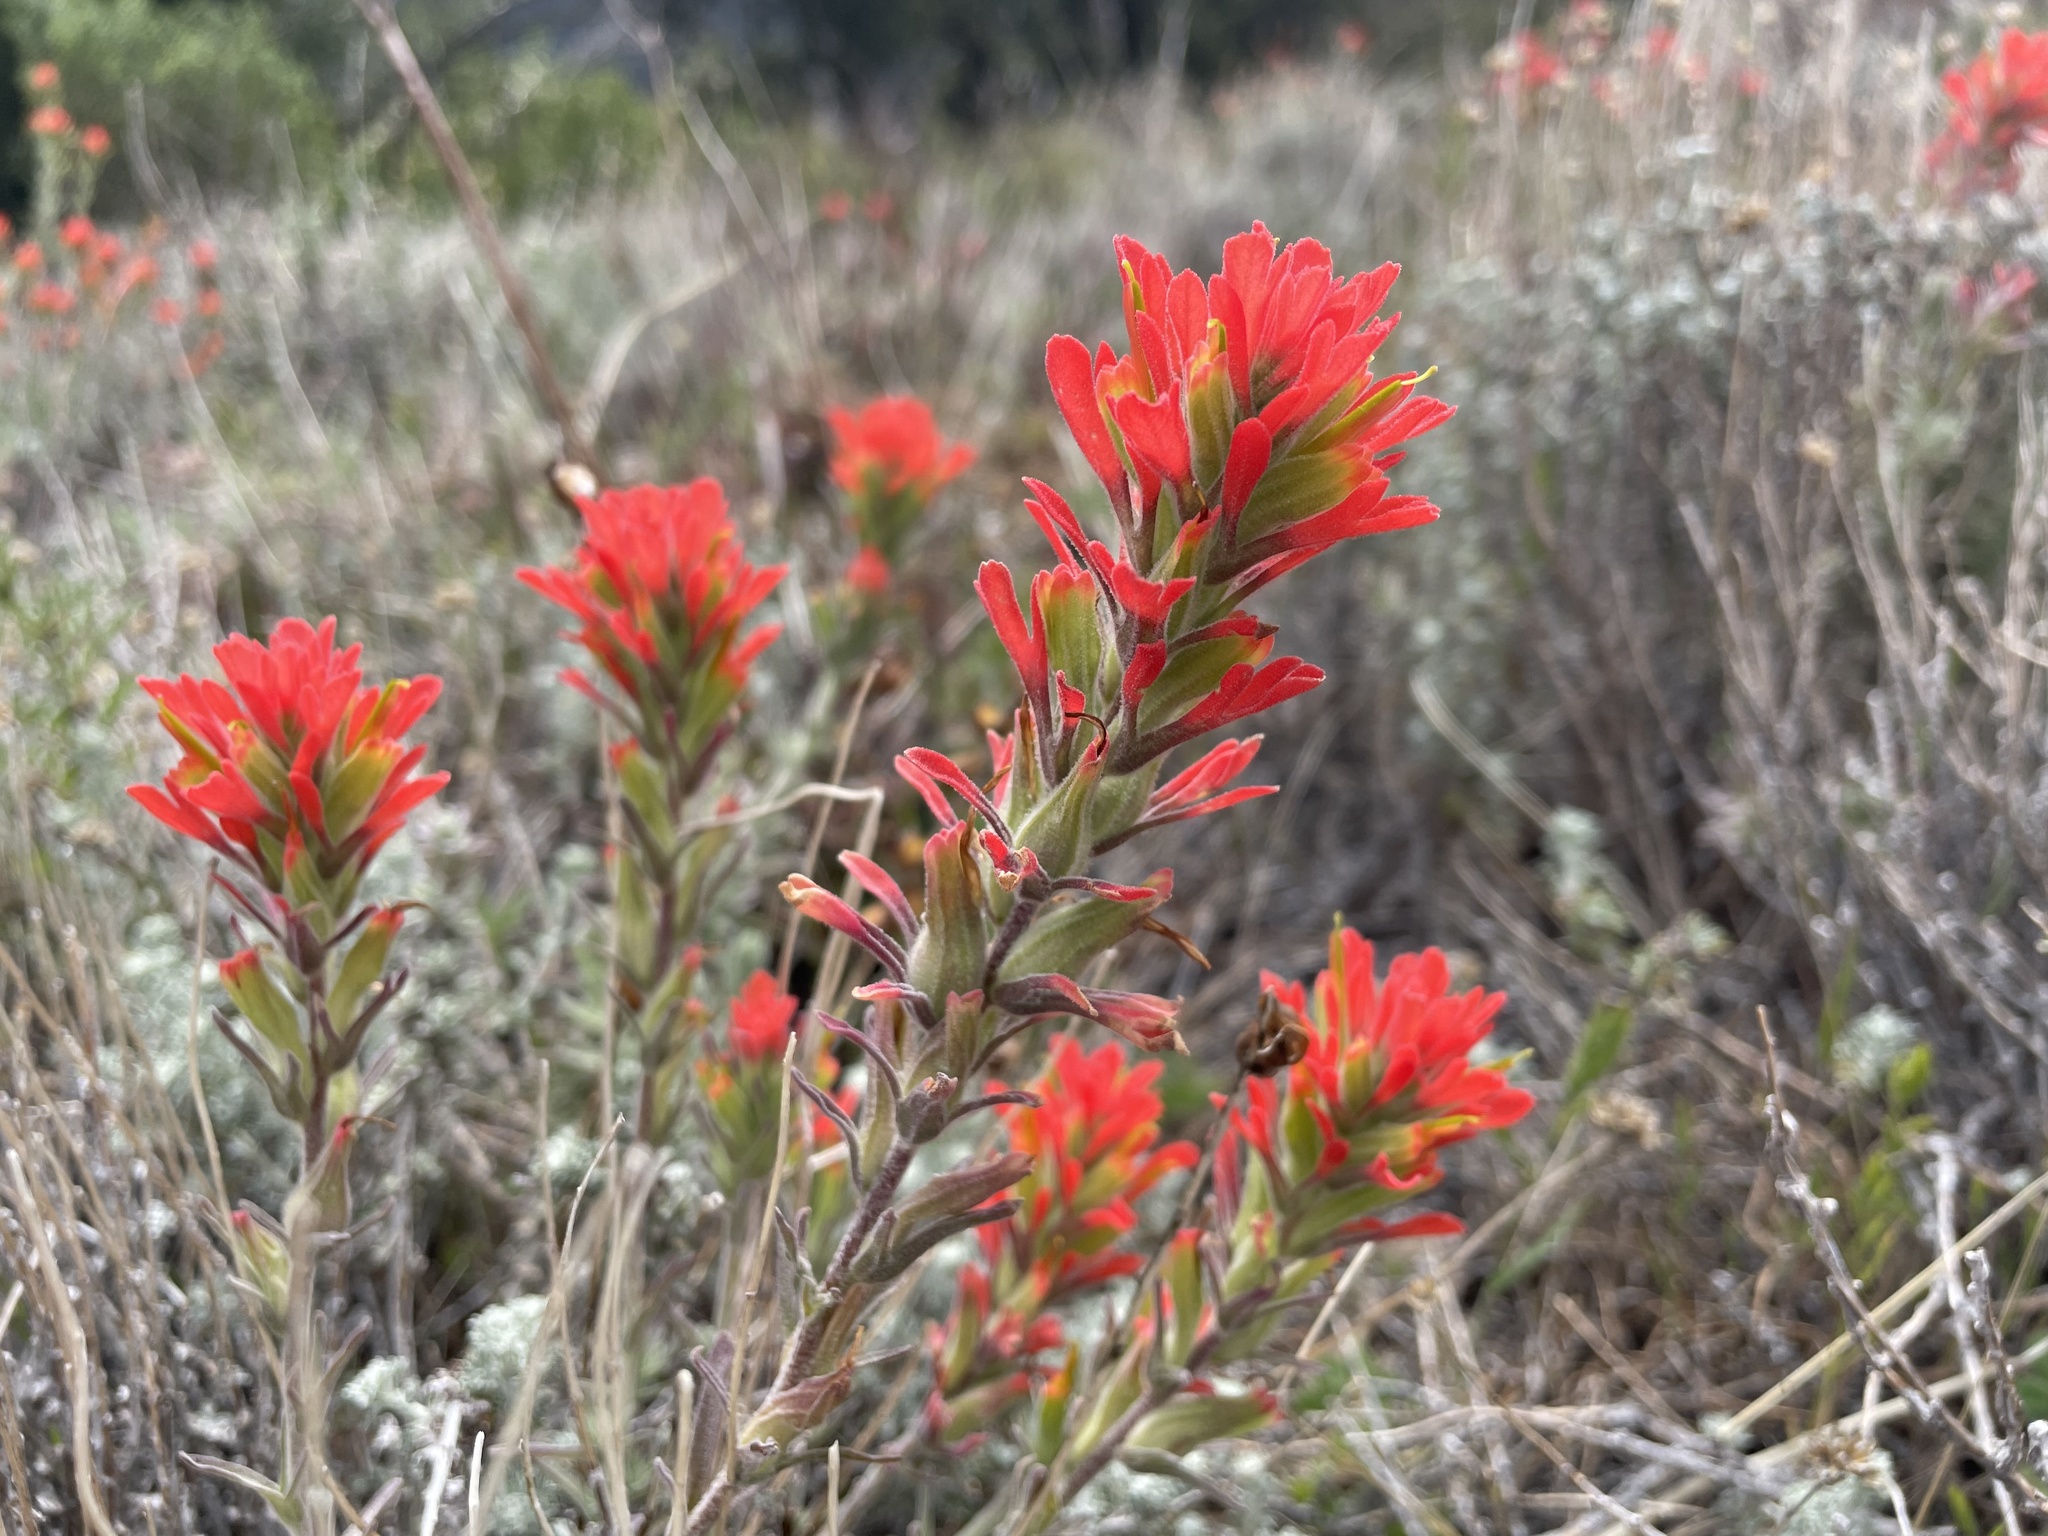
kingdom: Plantae
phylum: Tracheophyta
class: Magnoliopsida
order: Lamiales
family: Orobanchaceae
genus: Castilleja
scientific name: Castilleja foliolosa
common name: Woolly indian paintbrush
